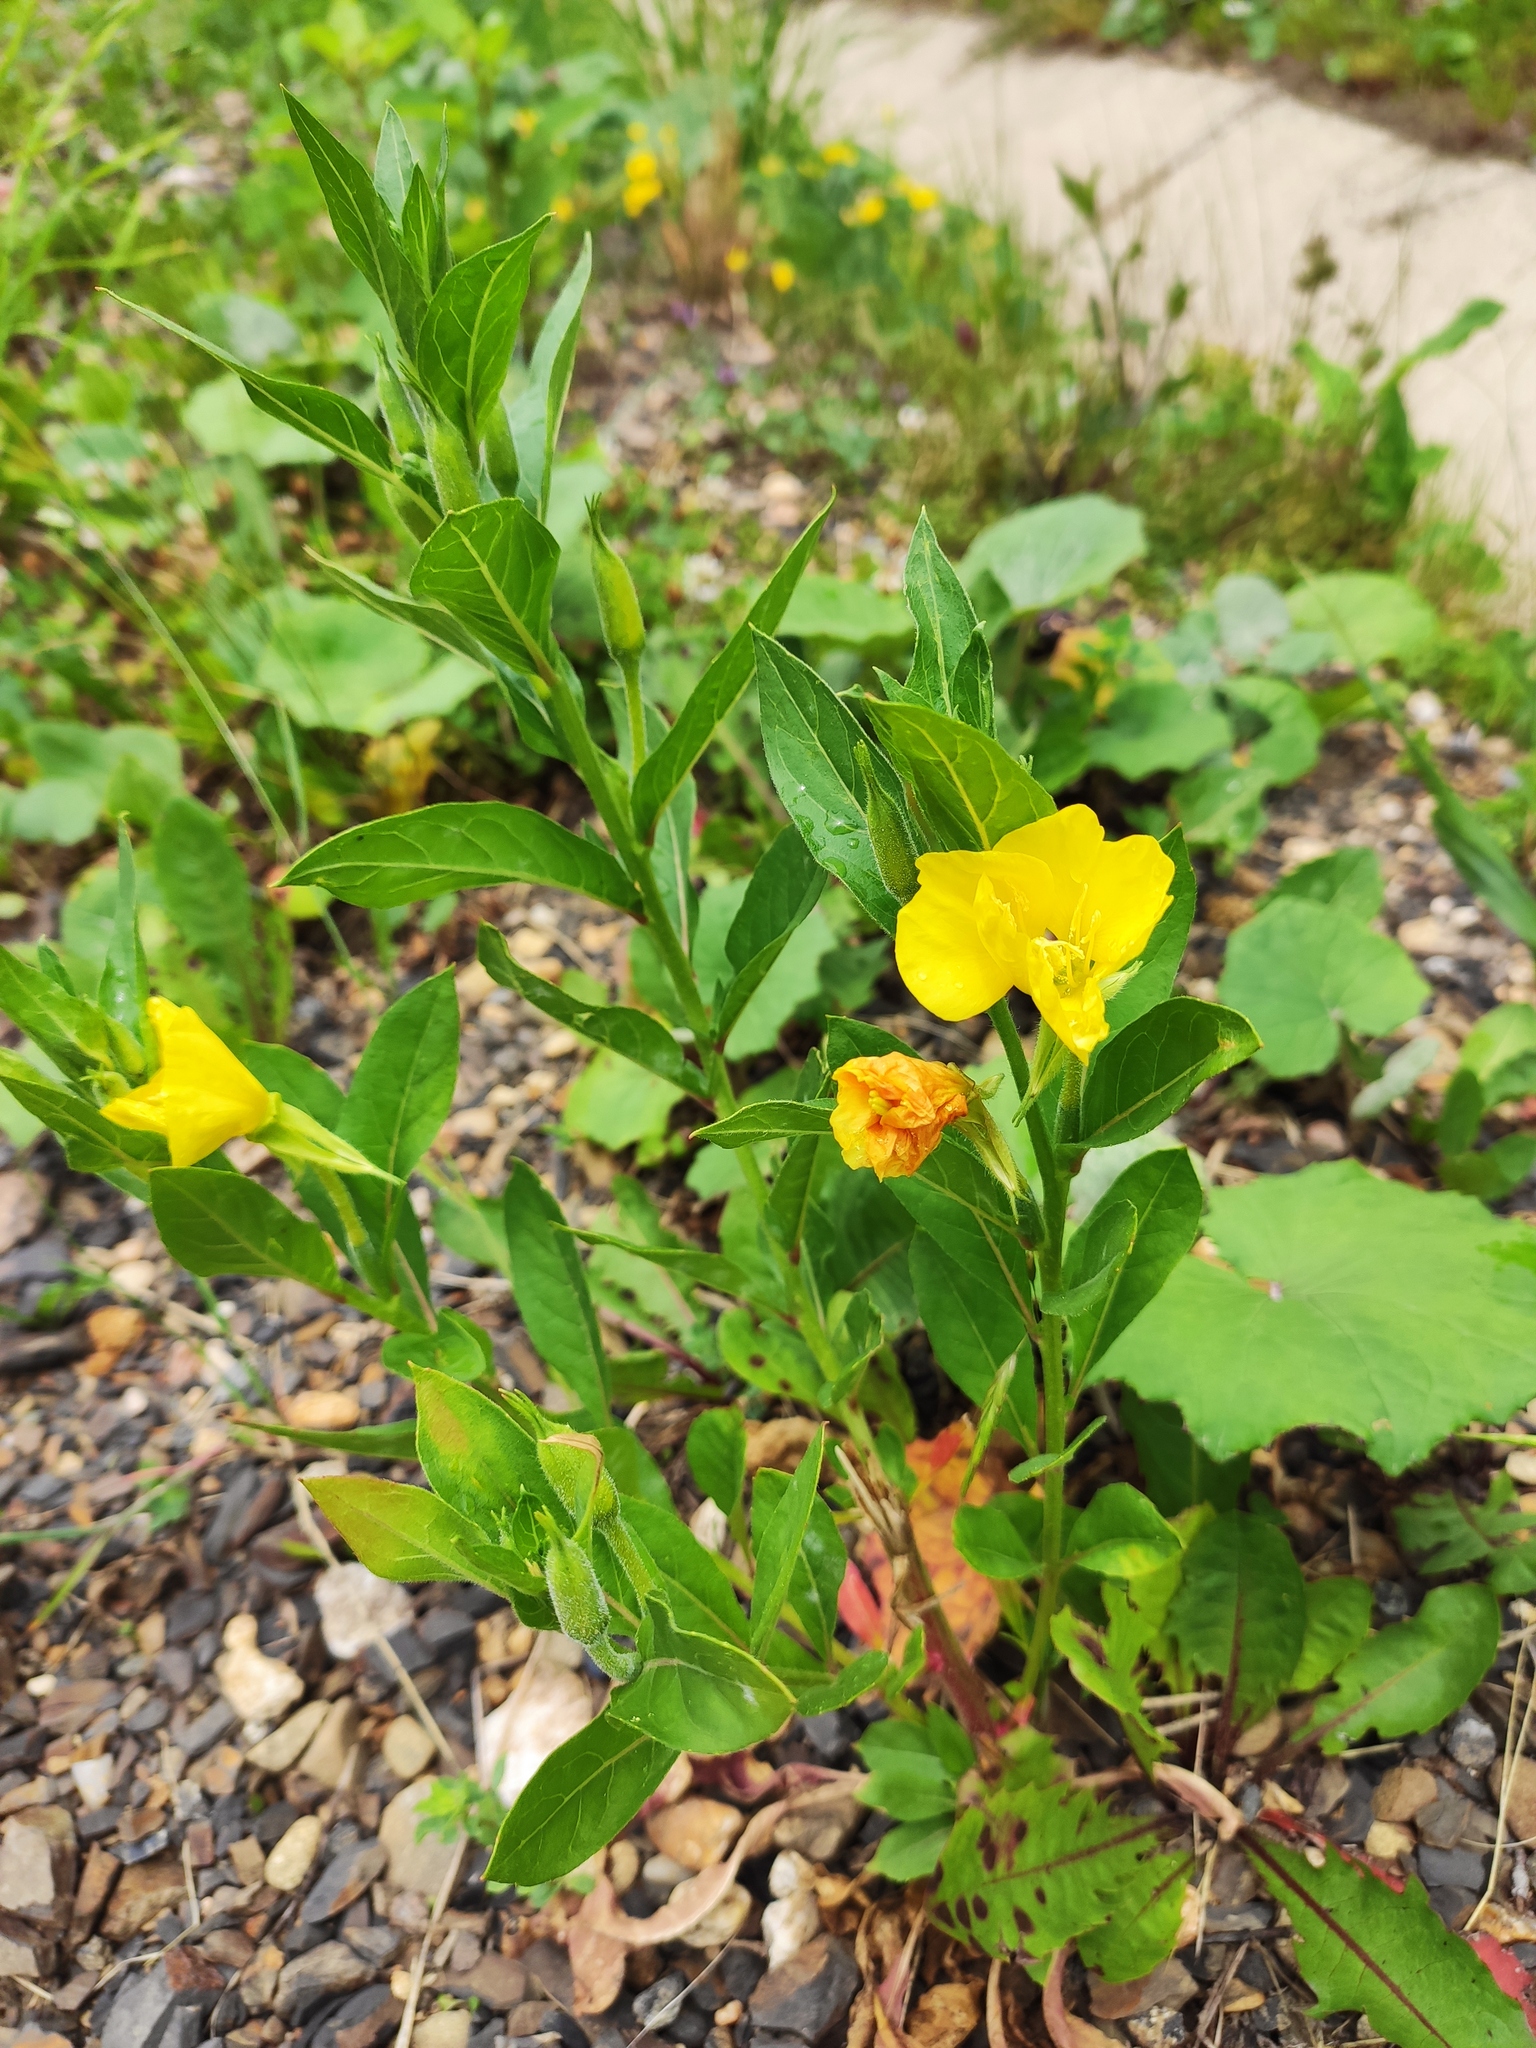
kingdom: Plantae
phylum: Tracheophyta
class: Magnoliopsida
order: Myrtales
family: Onagraceae
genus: Oenothera
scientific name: Oenothera biennis
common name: Common evening-primrose
